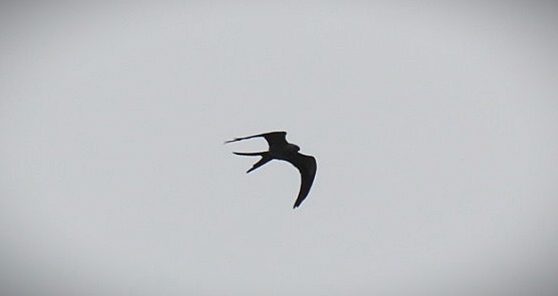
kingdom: Animalia
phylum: Chordata
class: Aves
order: Accipitriformes
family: Accipitridae
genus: Elanoides
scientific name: Elanoides forficatus
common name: Swallow-tailed kite
